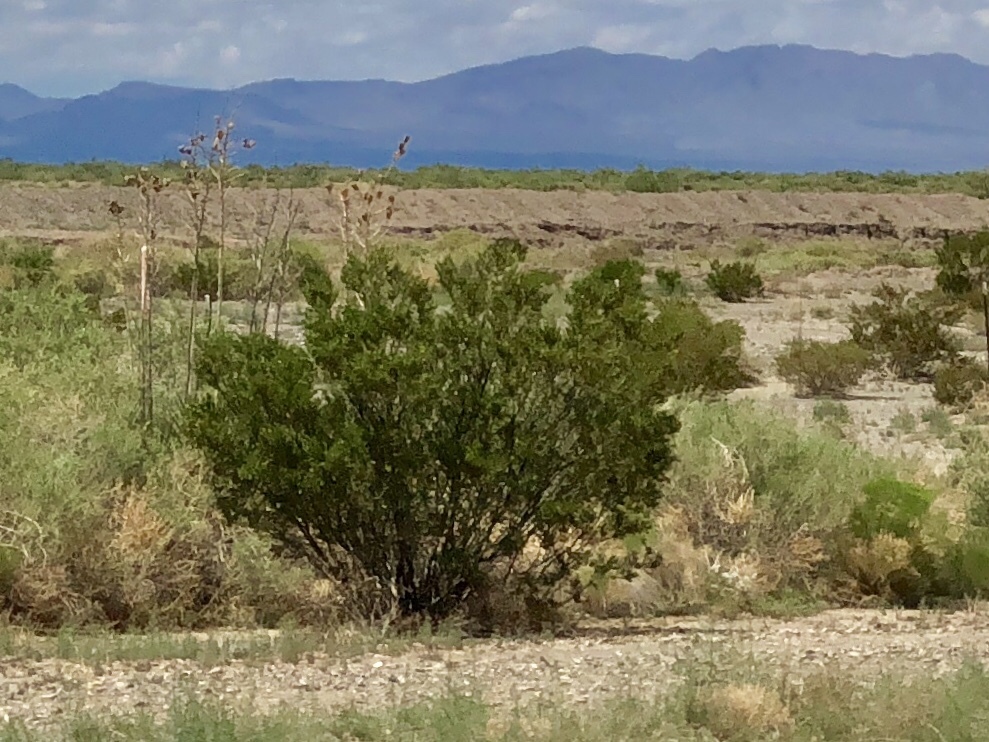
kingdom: Plantae
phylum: Tracheophyta
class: Magnoliopsida
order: Zygophyllales
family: Zygophyllaceae
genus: Larrea
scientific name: Larrea tridentata
